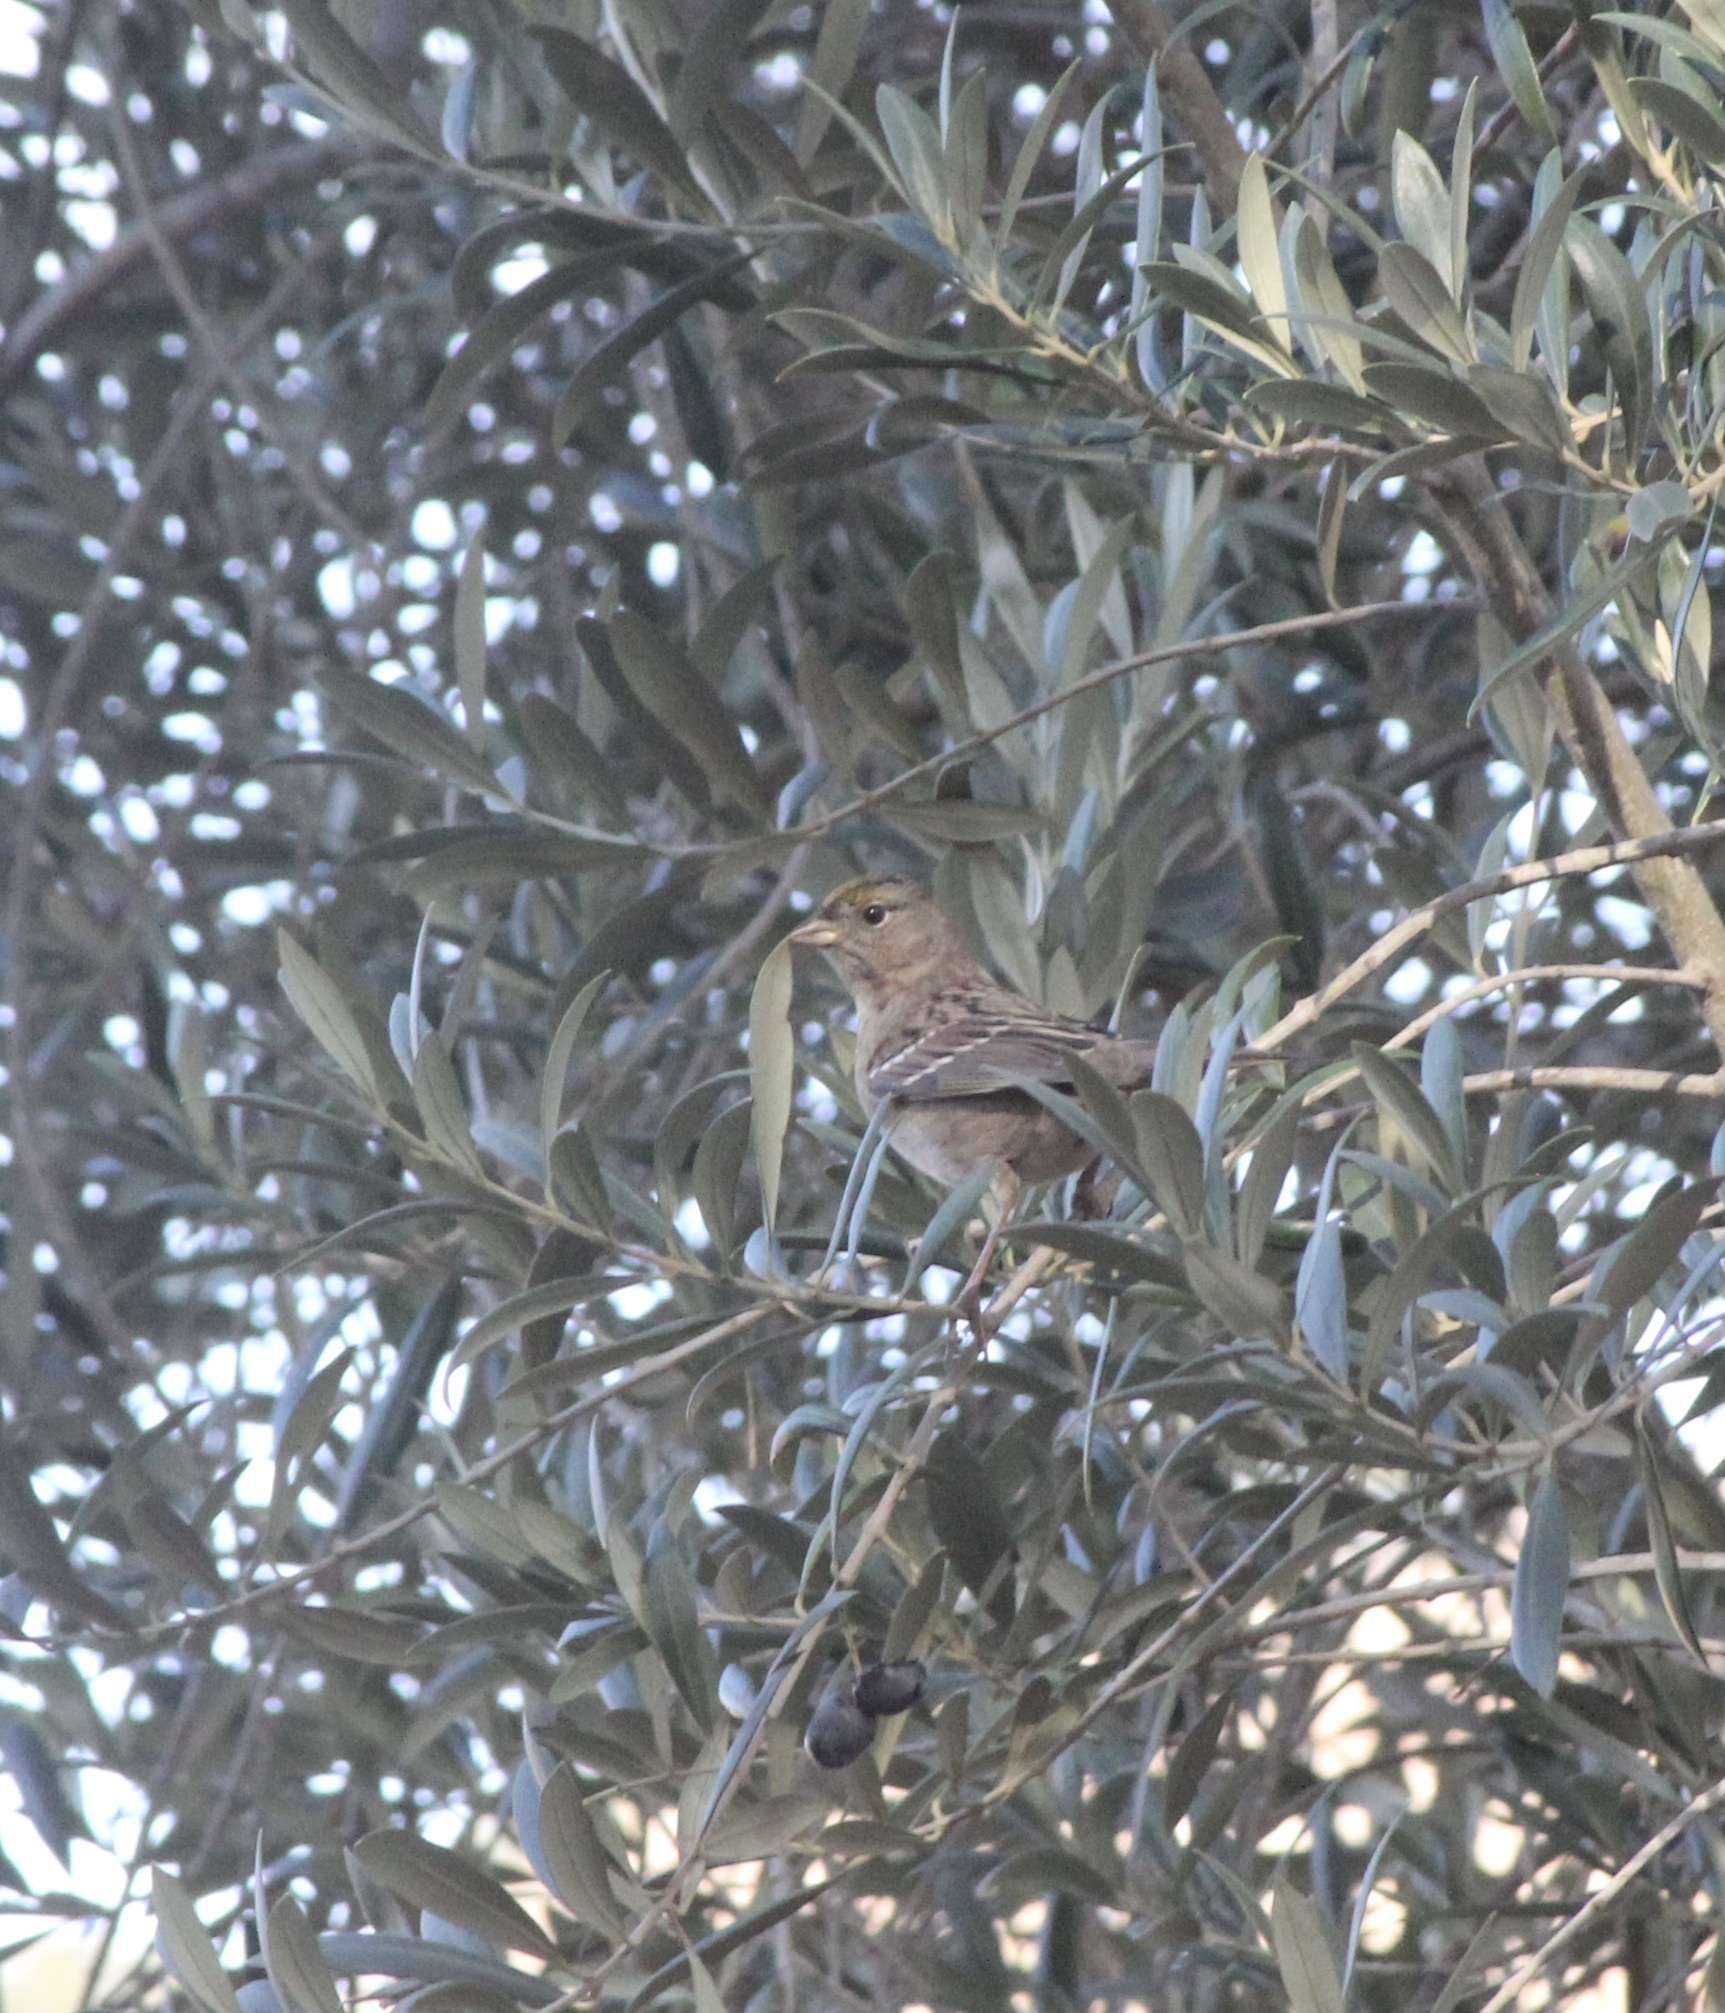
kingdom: Animalia
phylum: Chordata
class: Aves
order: Passeriformes
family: Passerellidae
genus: Zonotrichia
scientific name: Zonotrichia atricapilla
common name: Golden-crowned sparrow
